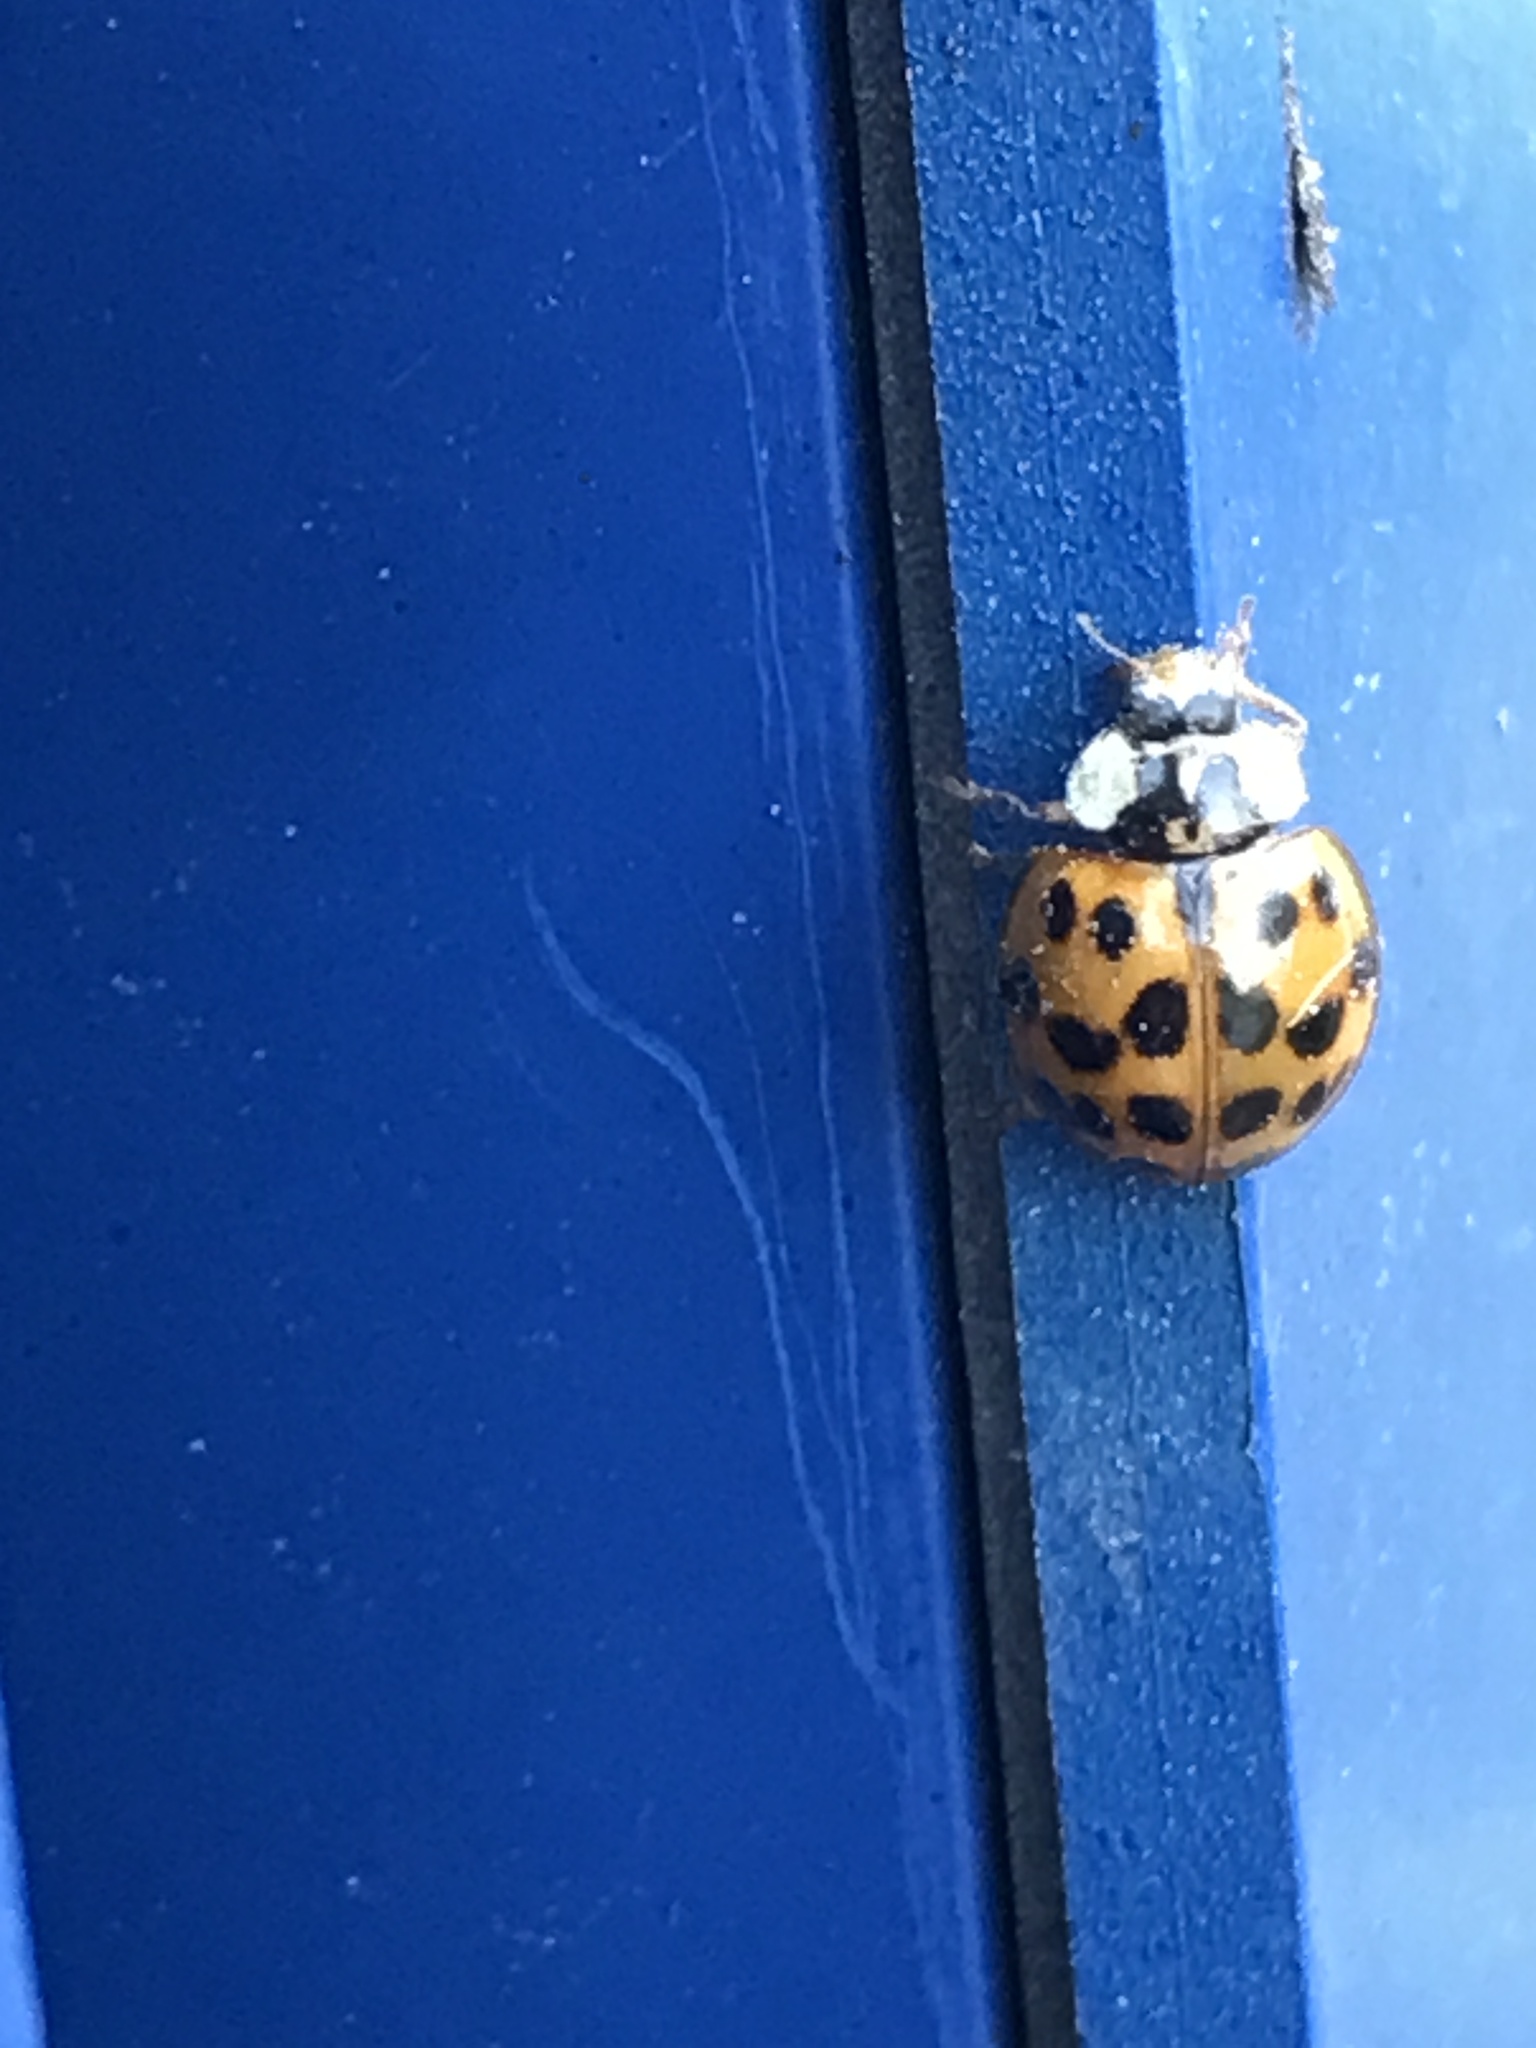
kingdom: Animalia
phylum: Arthropoda
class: Insecta
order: Coleoptera
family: Coccinellidae
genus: Harmonia
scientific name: Harmonia axyridis
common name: Harlequin ladybird
